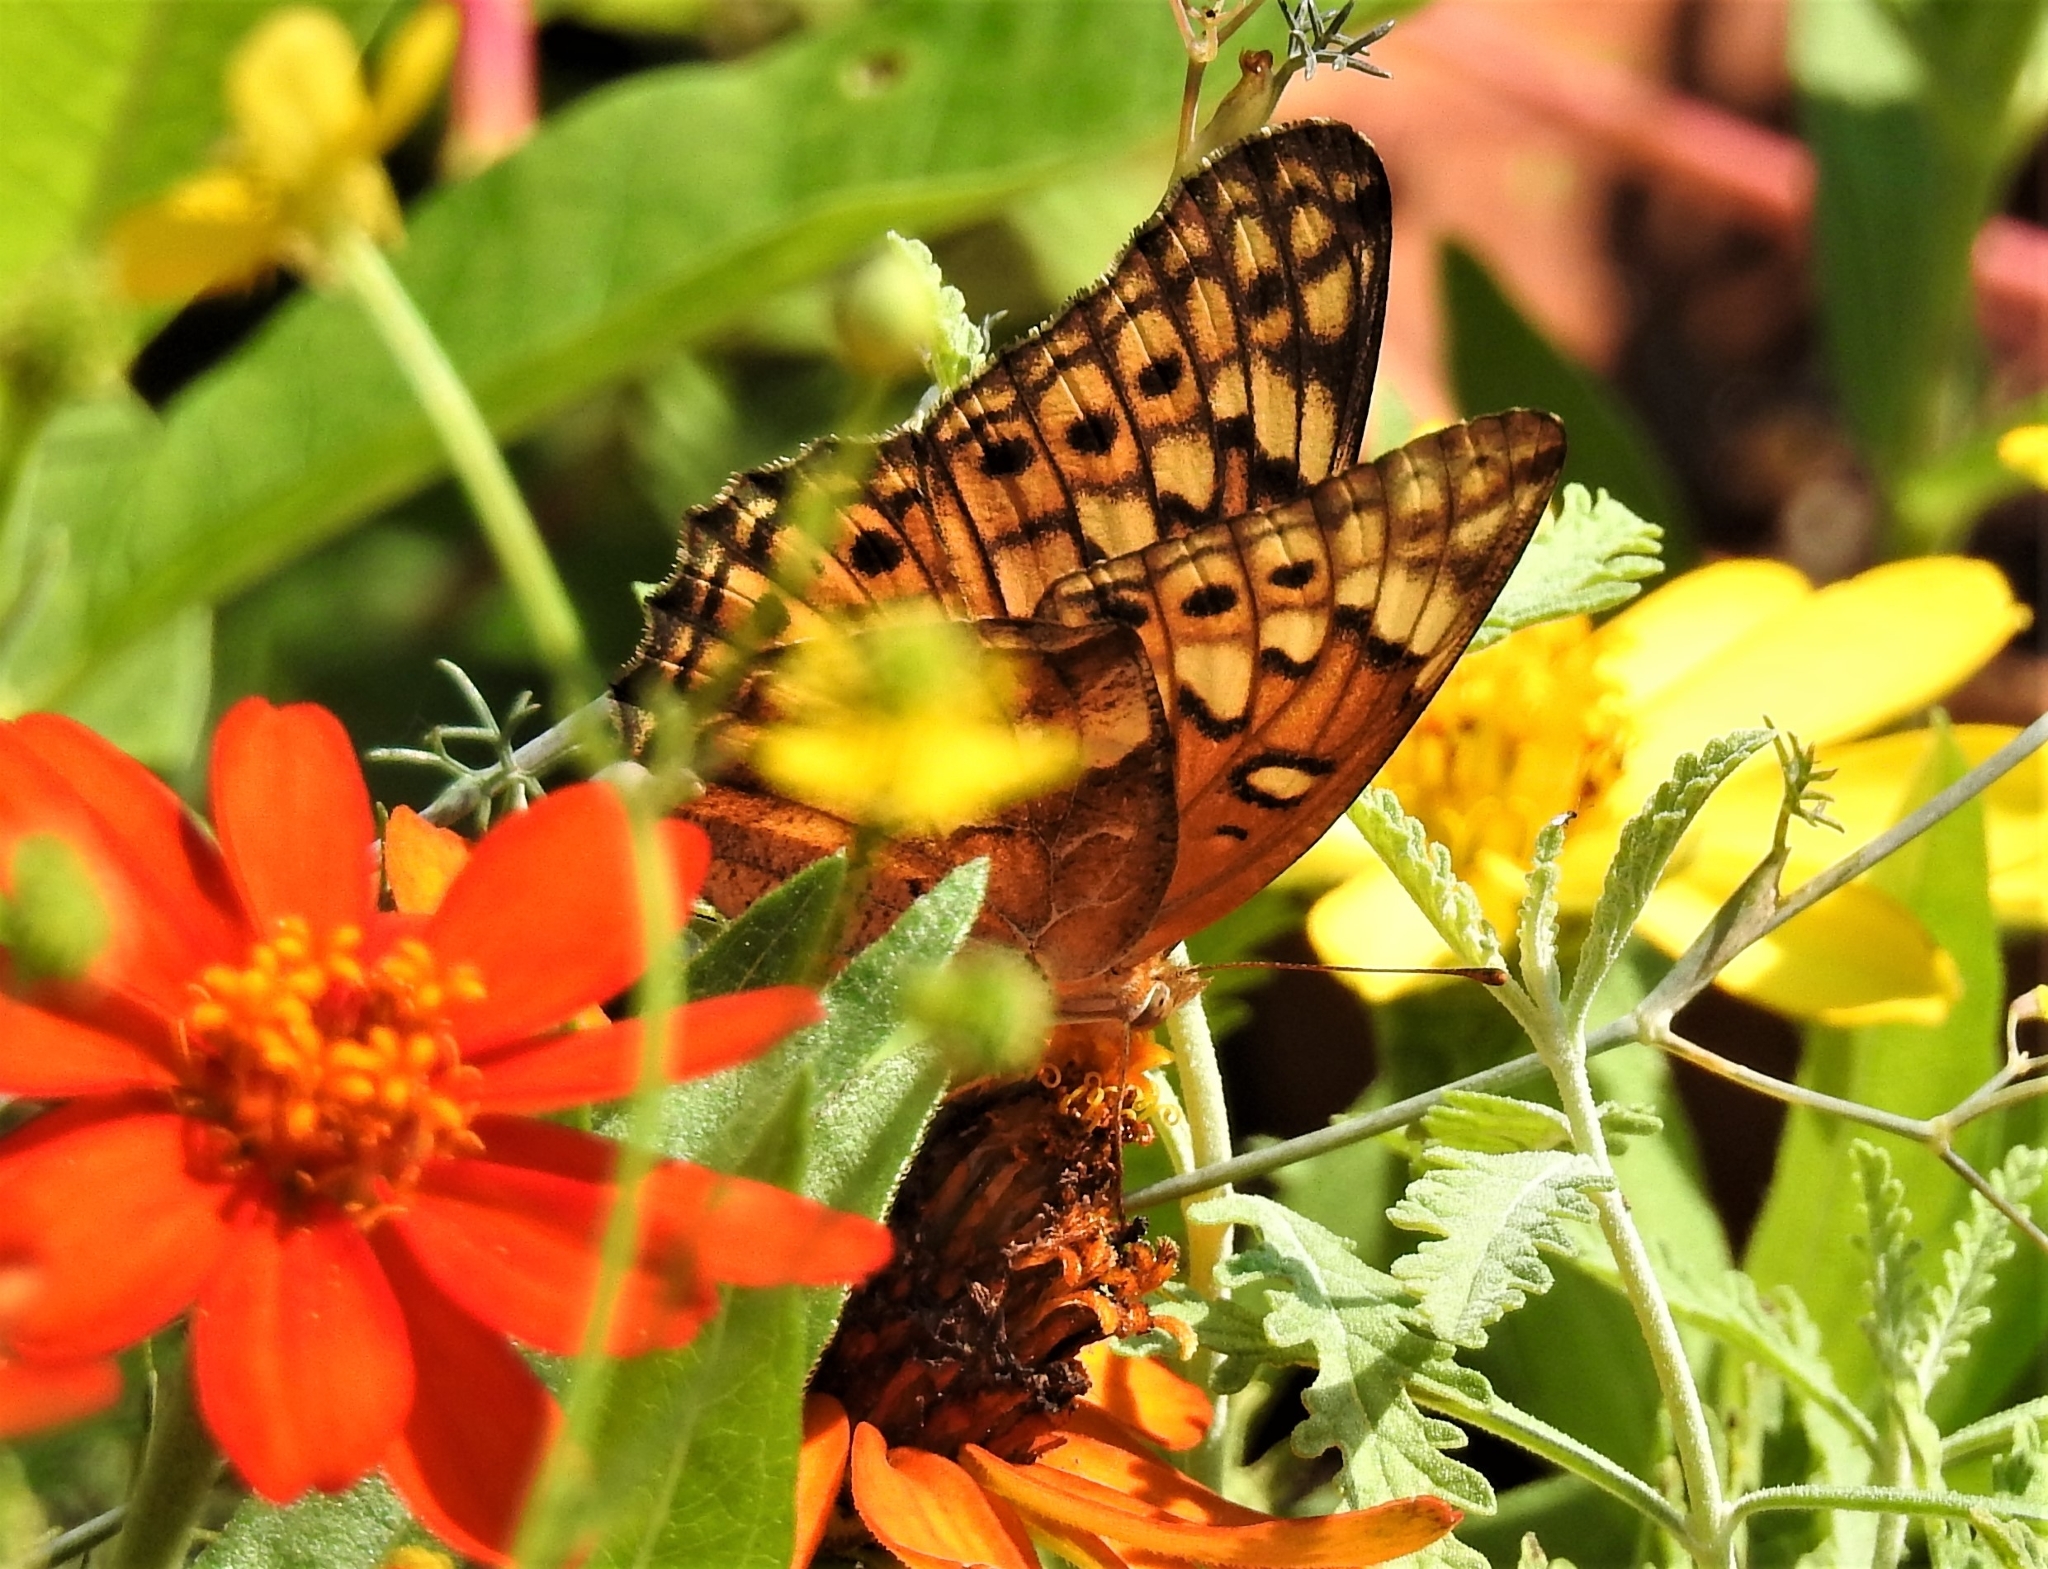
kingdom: Animalia
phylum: Arthropoda
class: Insecta
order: Lepidoptera
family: Nymphalidae
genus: Euptoieta
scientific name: Euptoieta claudia
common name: Variegated fritillary
